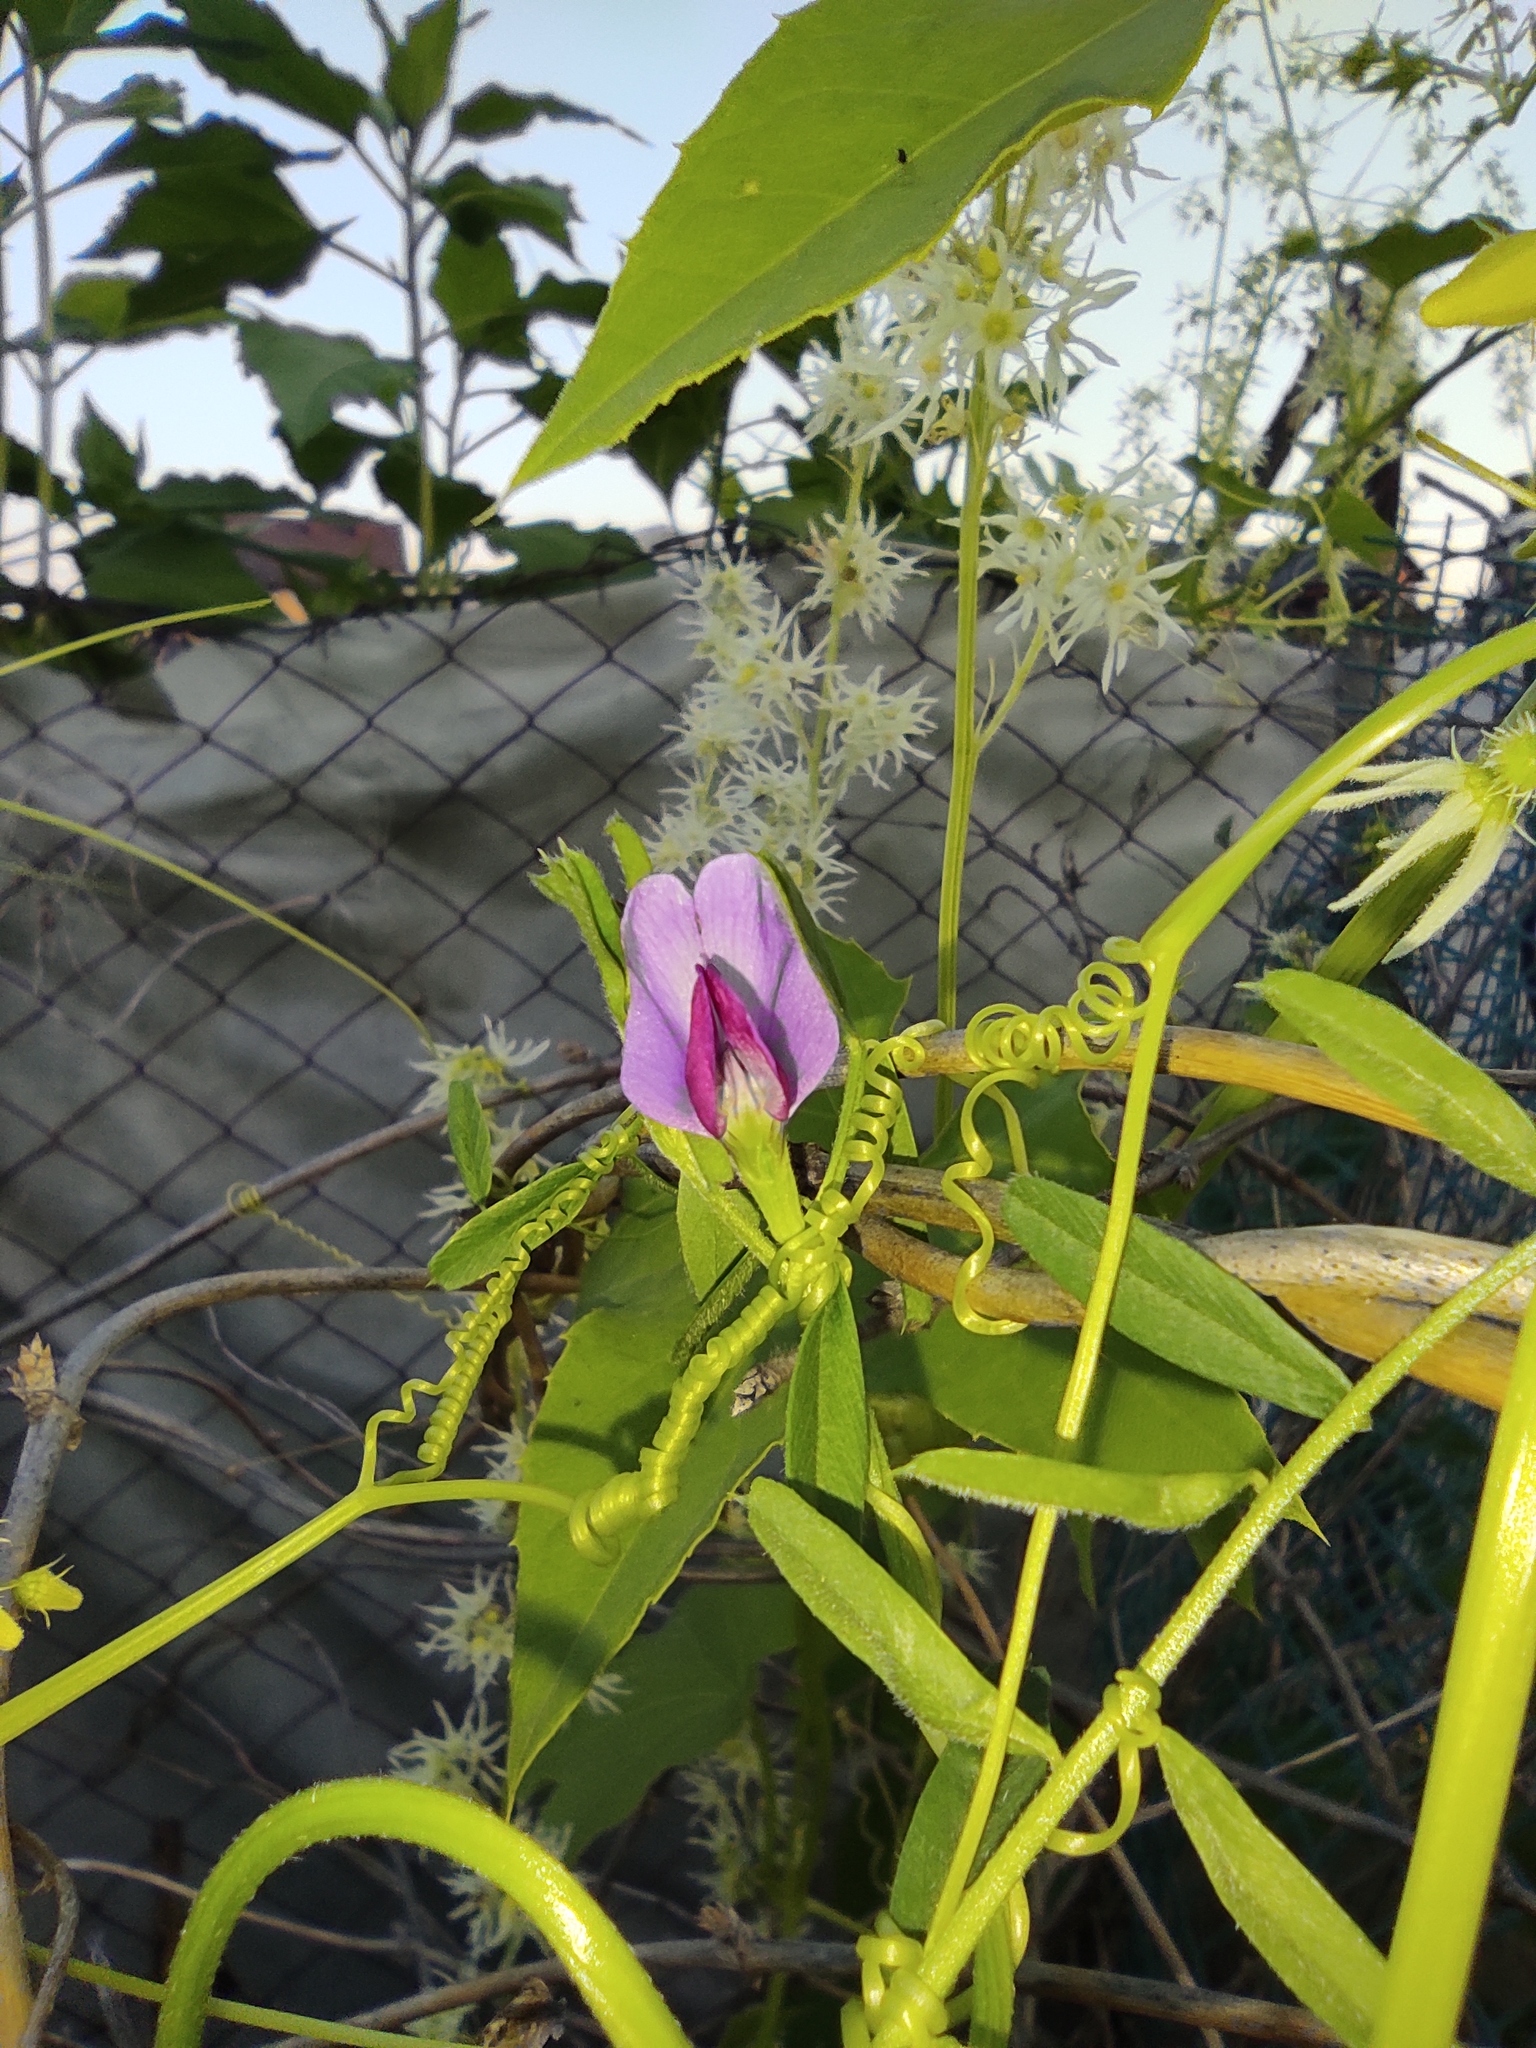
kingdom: Plantae
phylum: Tracheophyta
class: Magnoliopsida
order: Fabales
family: Fabaceae
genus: Vicia
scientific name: Vicia sativa
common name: Garden vetch
